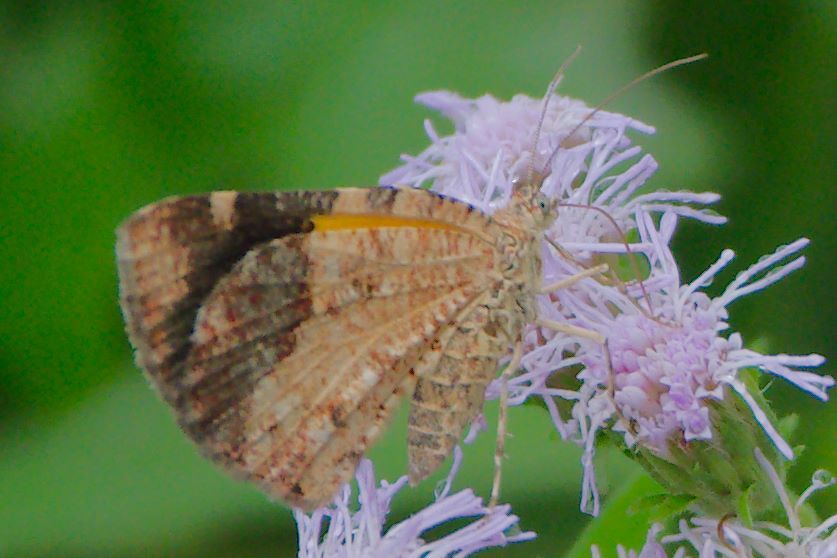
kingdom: Animalia
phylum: Arthropoda
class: Insecta
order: Lepidoptera
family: Geometridae
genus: Heterusia
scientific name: Heterusia atalantata
